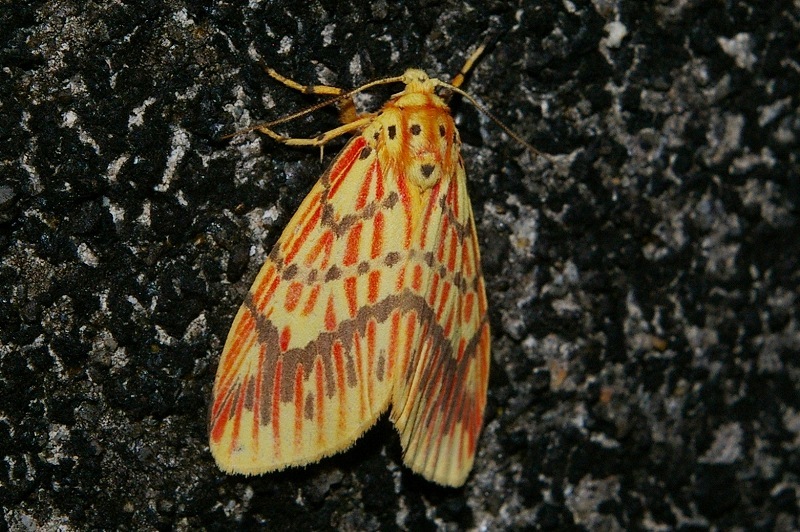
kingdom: Animalia
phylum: Arthropoda
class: Insecta
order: Lepidoptera
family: Erebidae
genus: Barsine
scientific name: Barsine striata
